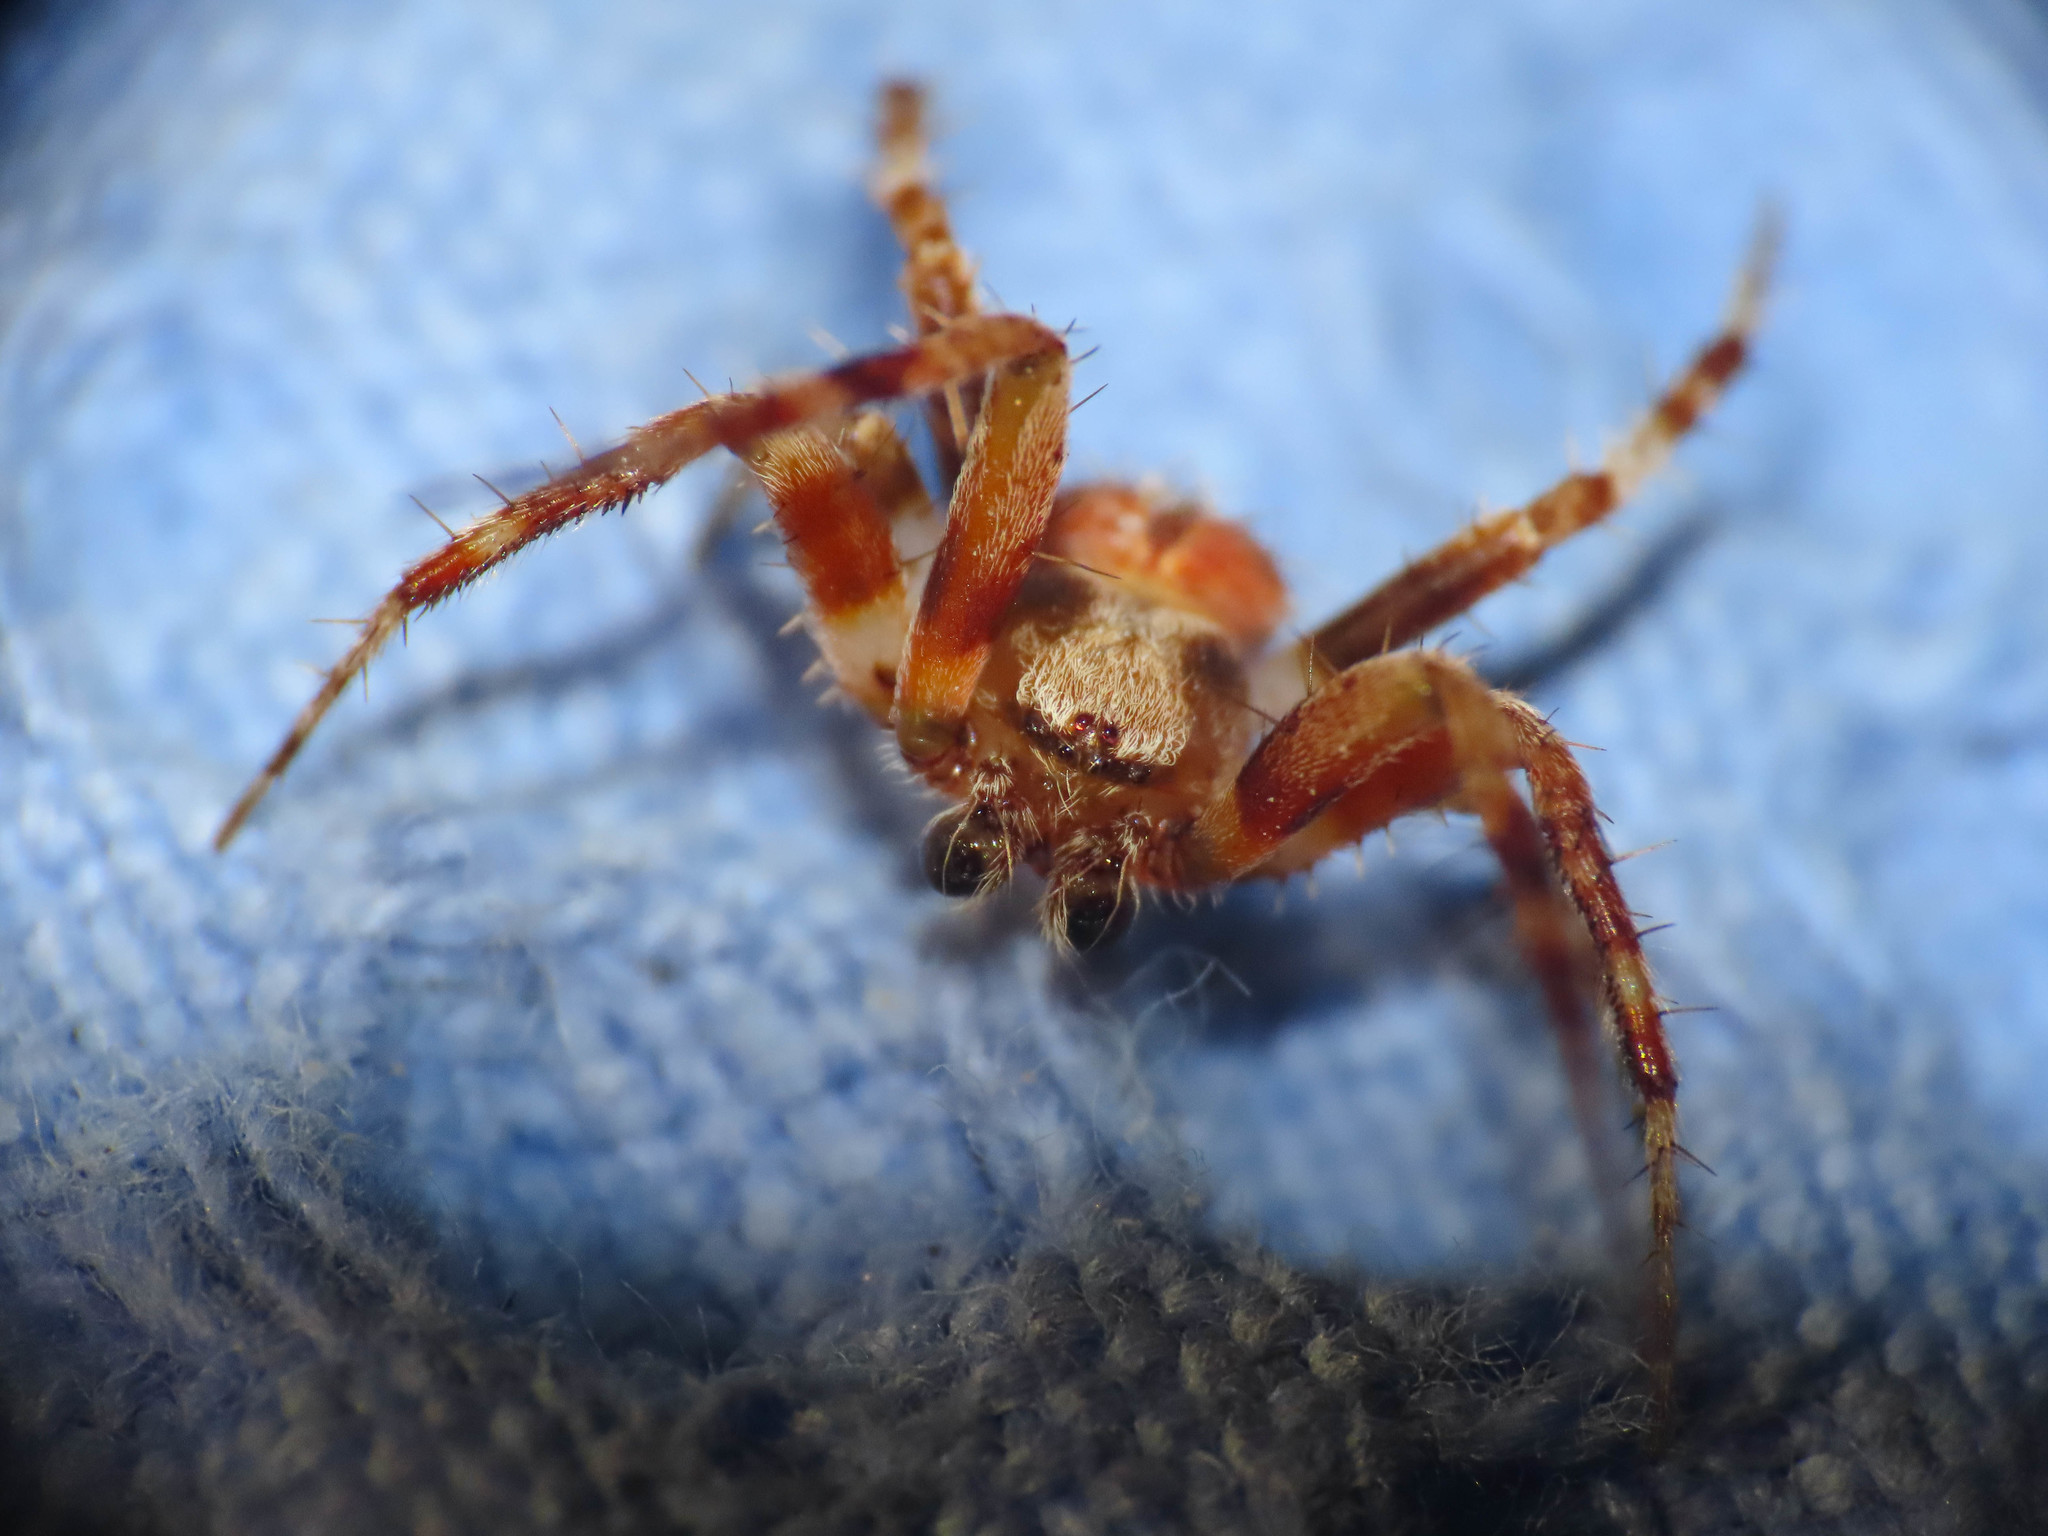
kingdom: Animalia
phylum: Arthropoda
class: Arachnida
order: Araneae
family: Araneidae
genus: Neoscona
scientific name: Neoscona subfusca
